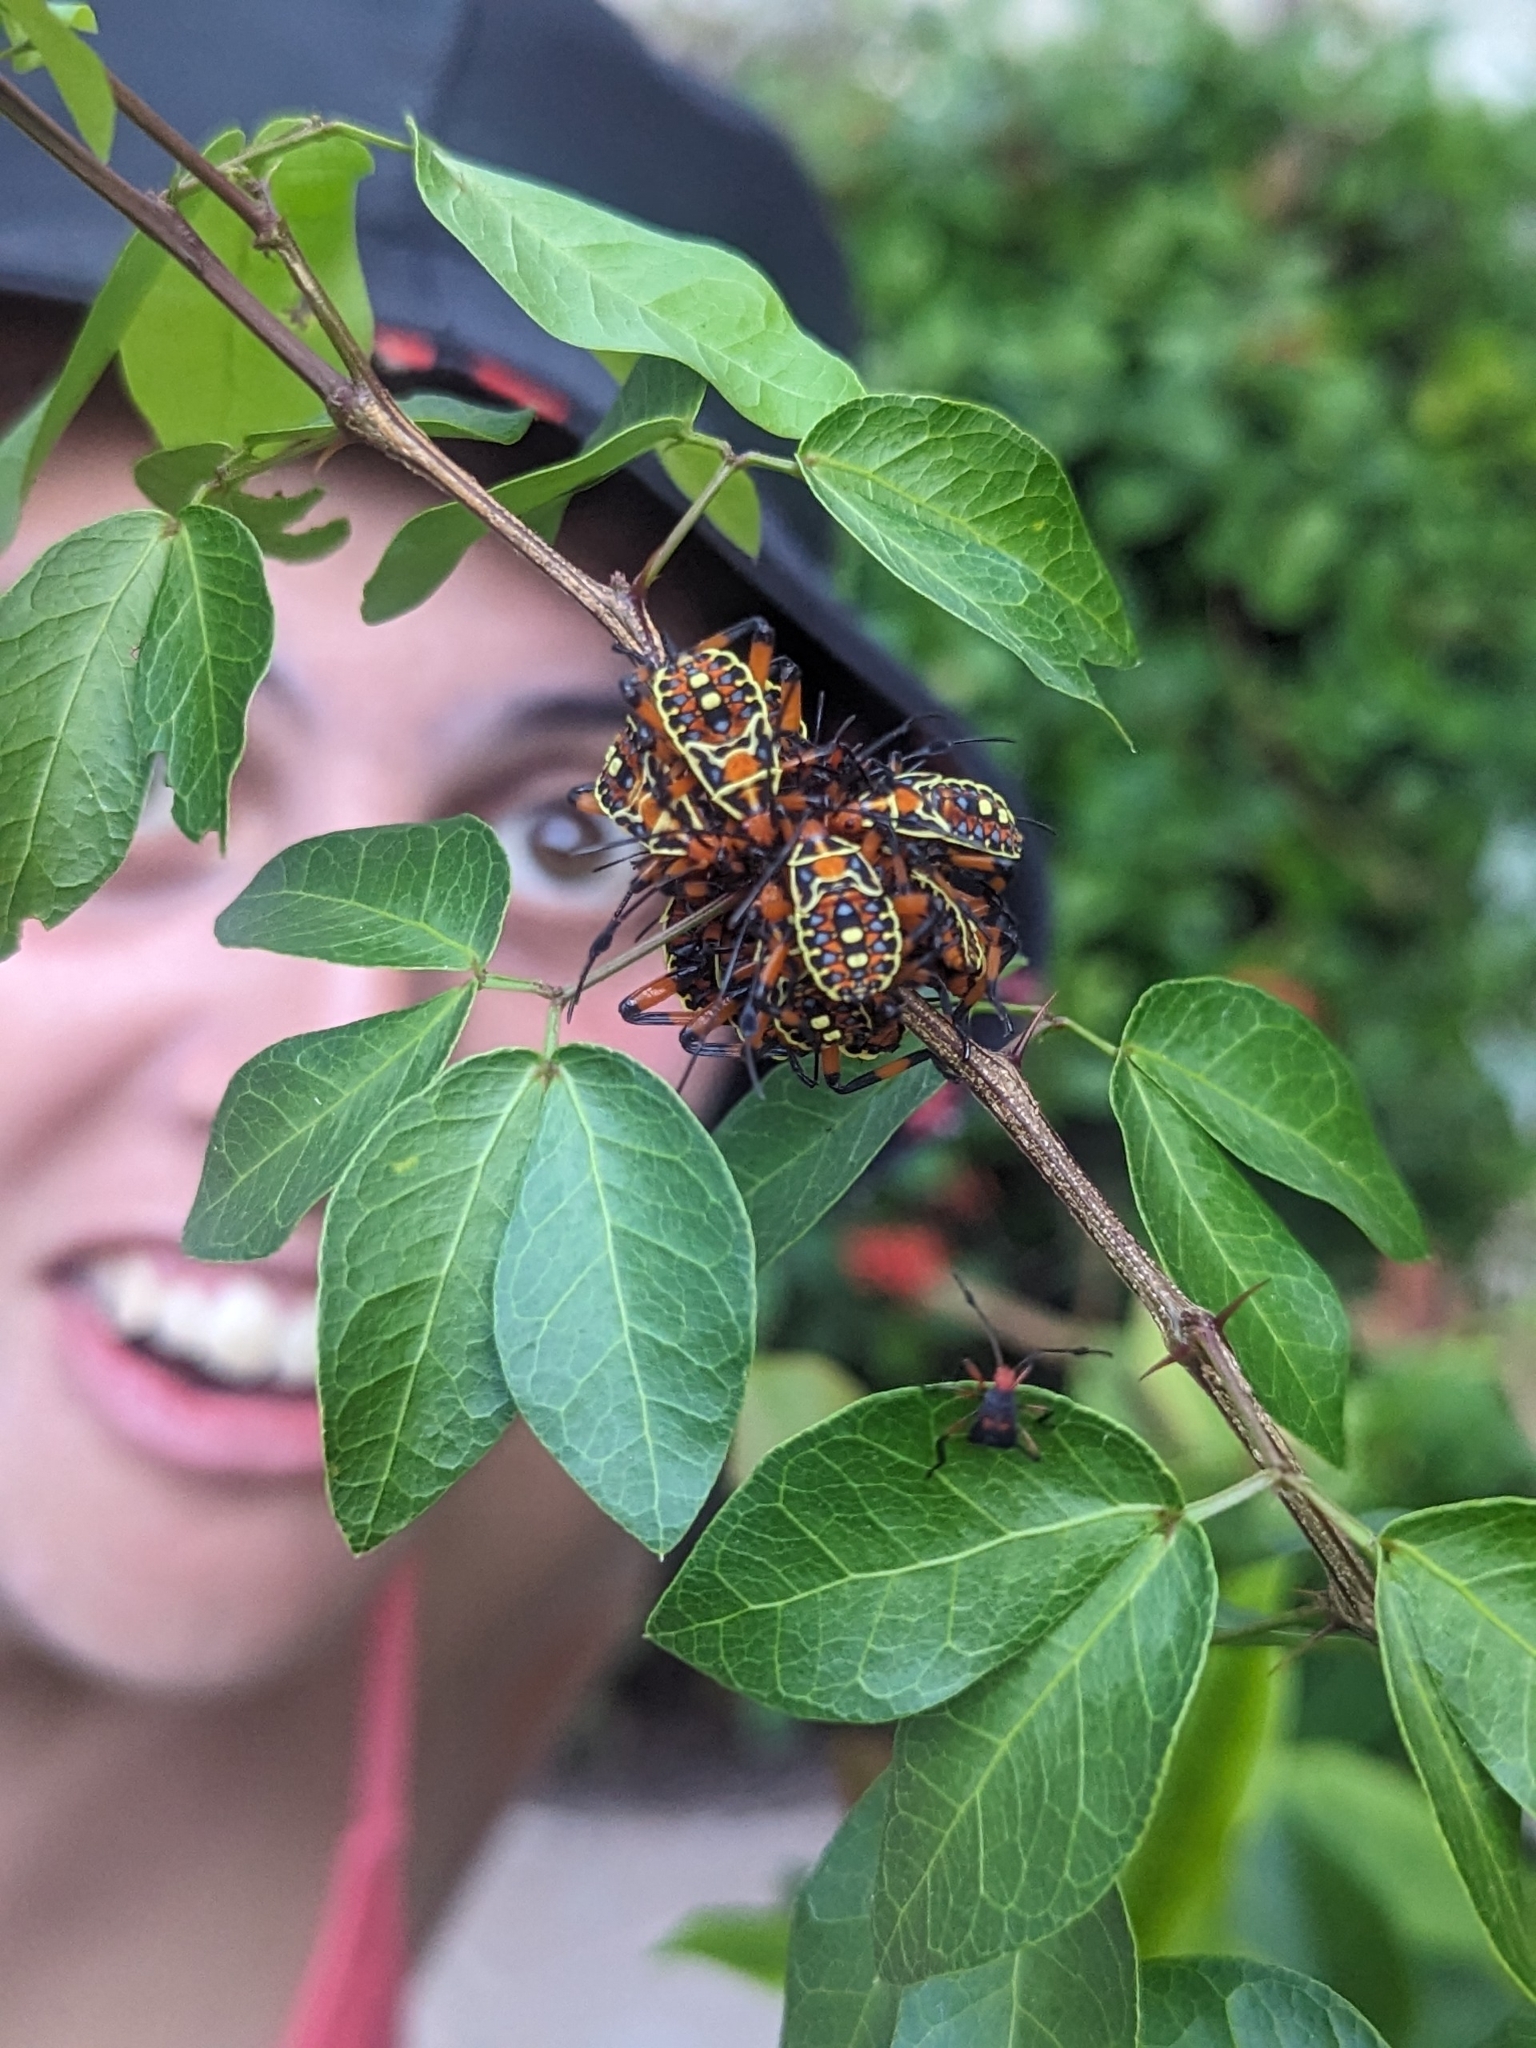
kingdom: Animalia
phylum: Arthropoda
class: Insecta
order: Hemiptera
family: Coreidae
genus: Pachylis
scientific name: Pachylis nervosus
